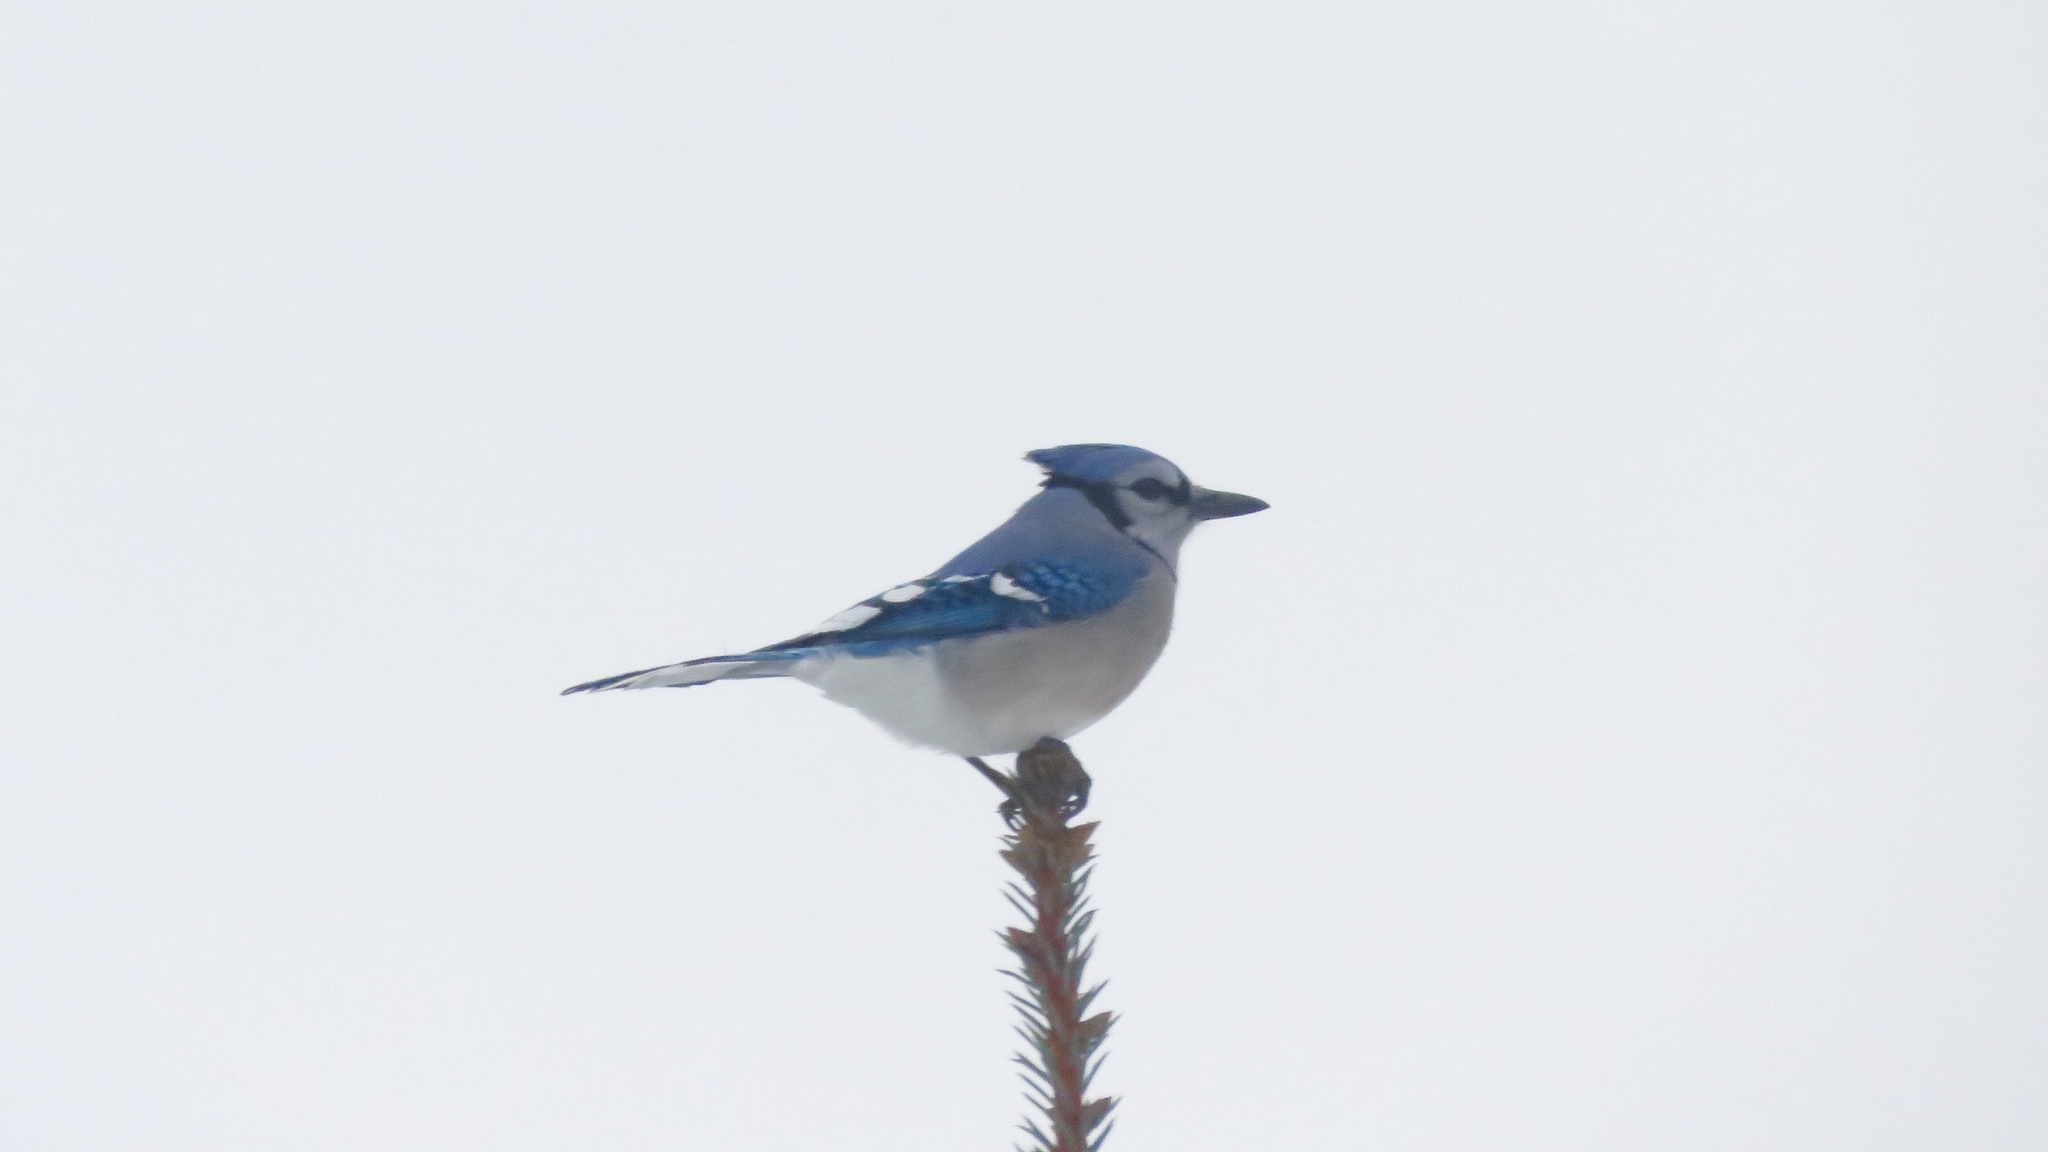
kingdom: Animalia
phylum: Chordata
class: Aves
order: Passeriformes
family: Corvidae
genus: Cyanocitta
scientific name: Cyanocitta cristata
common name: Blue jay
